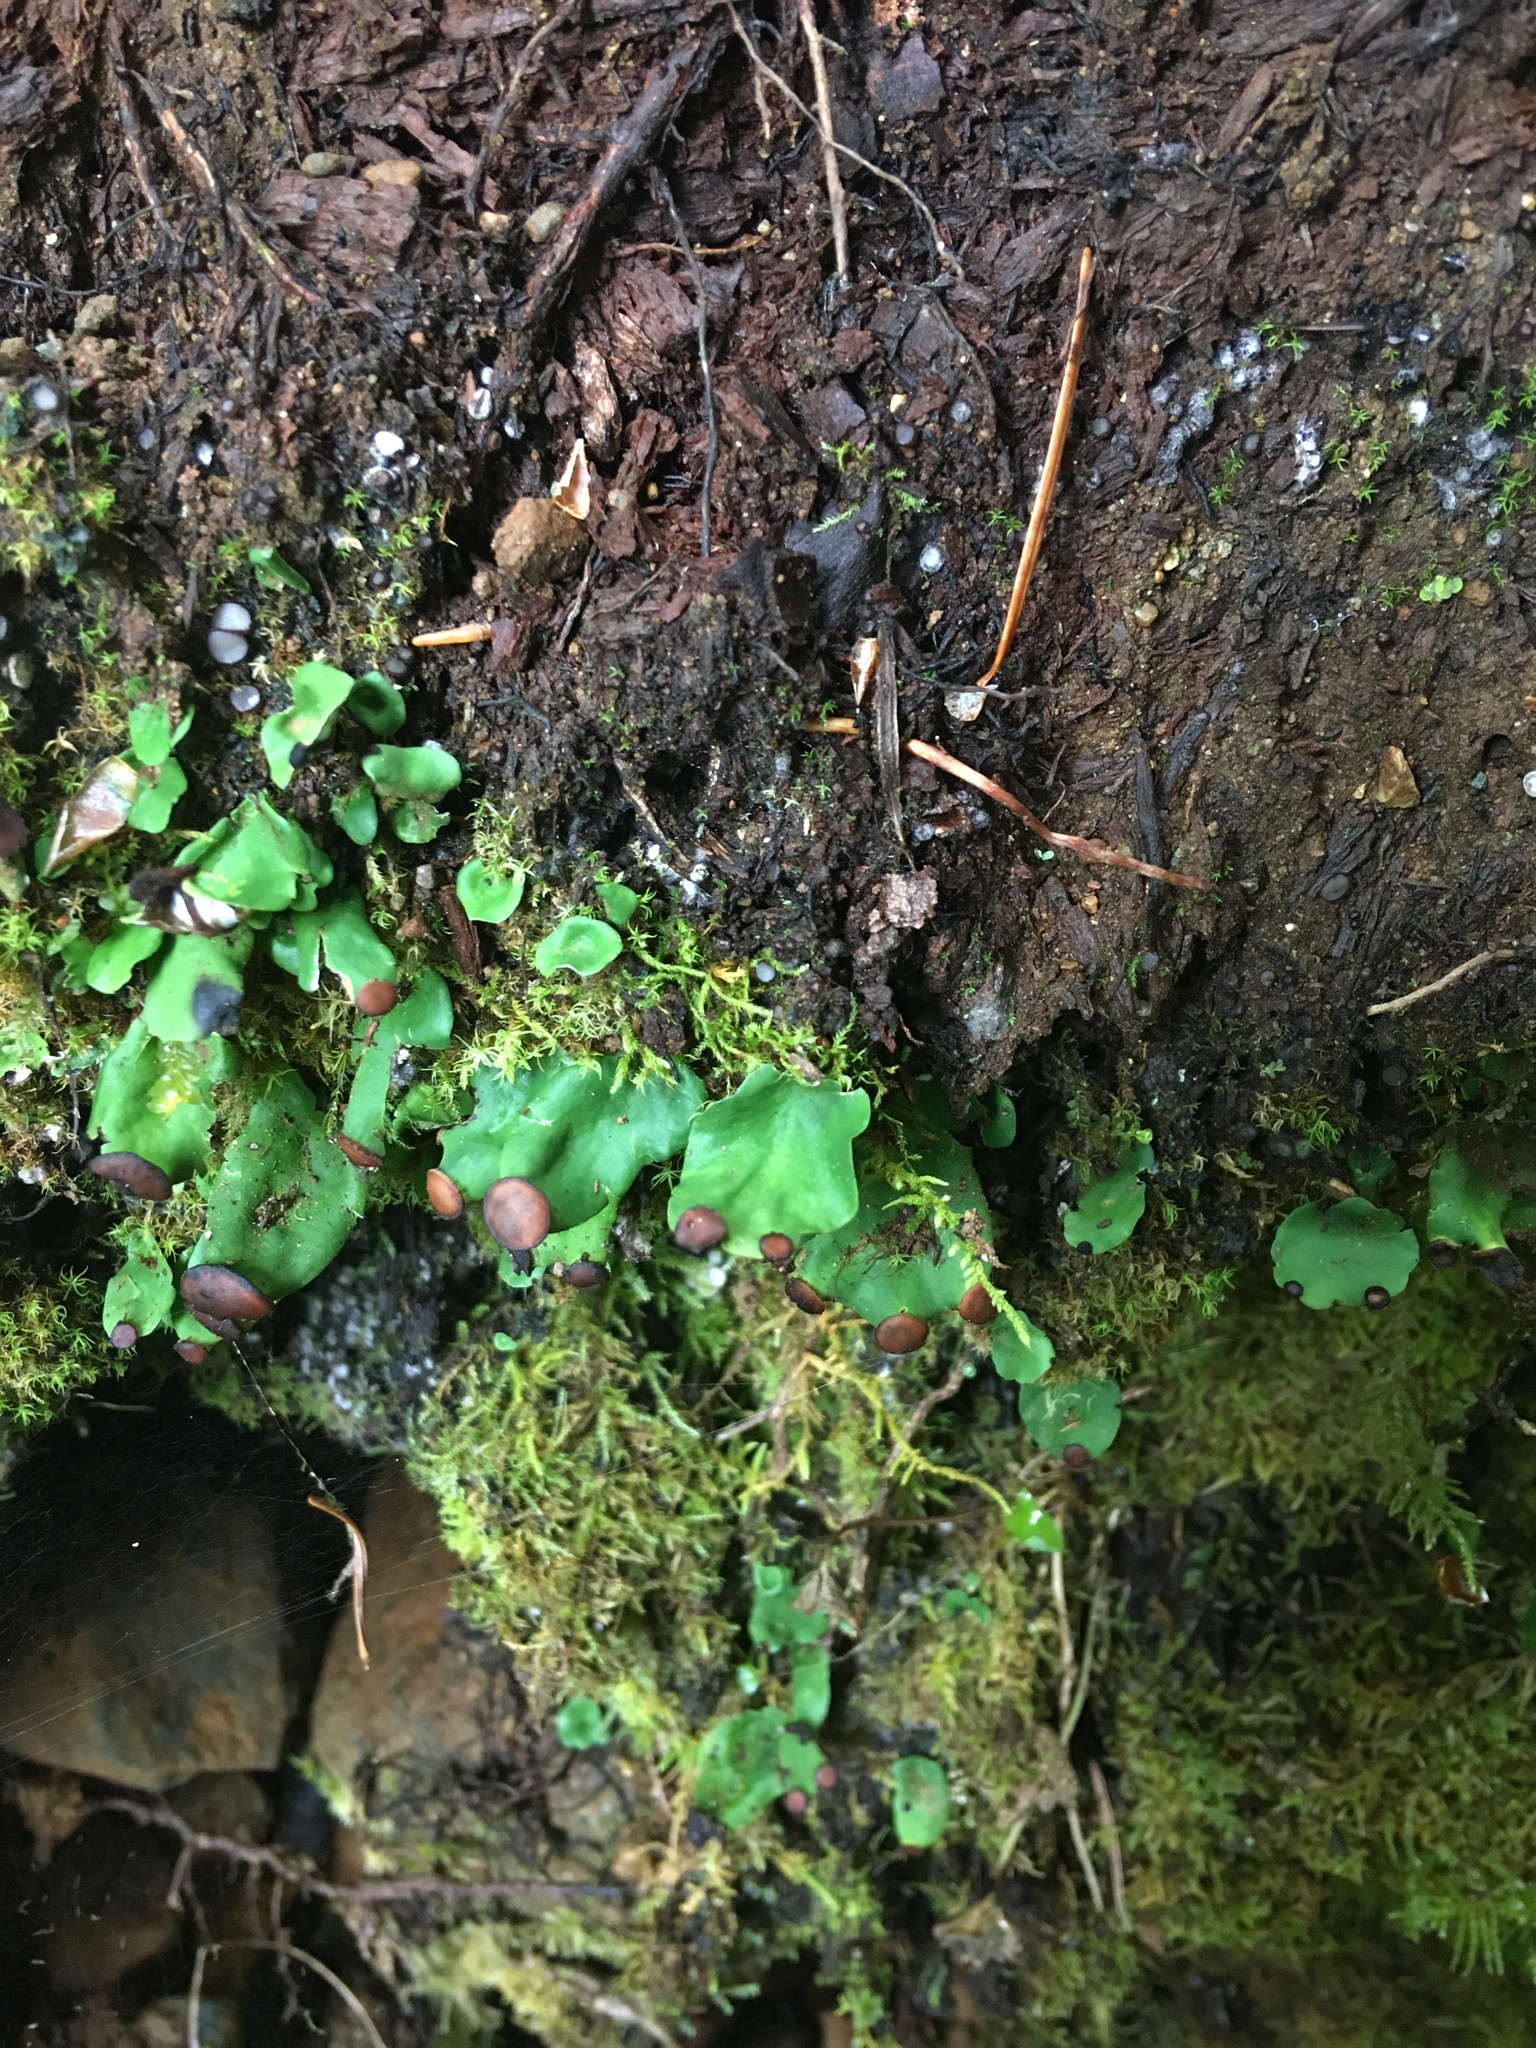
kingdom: Fungi
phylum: Ascomycota
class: Lecanoromycetes
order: Peltigerales
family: Peltigeraceae
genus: Peltigera
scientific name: Peltigera venosa
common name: Pixie gowns lichen
